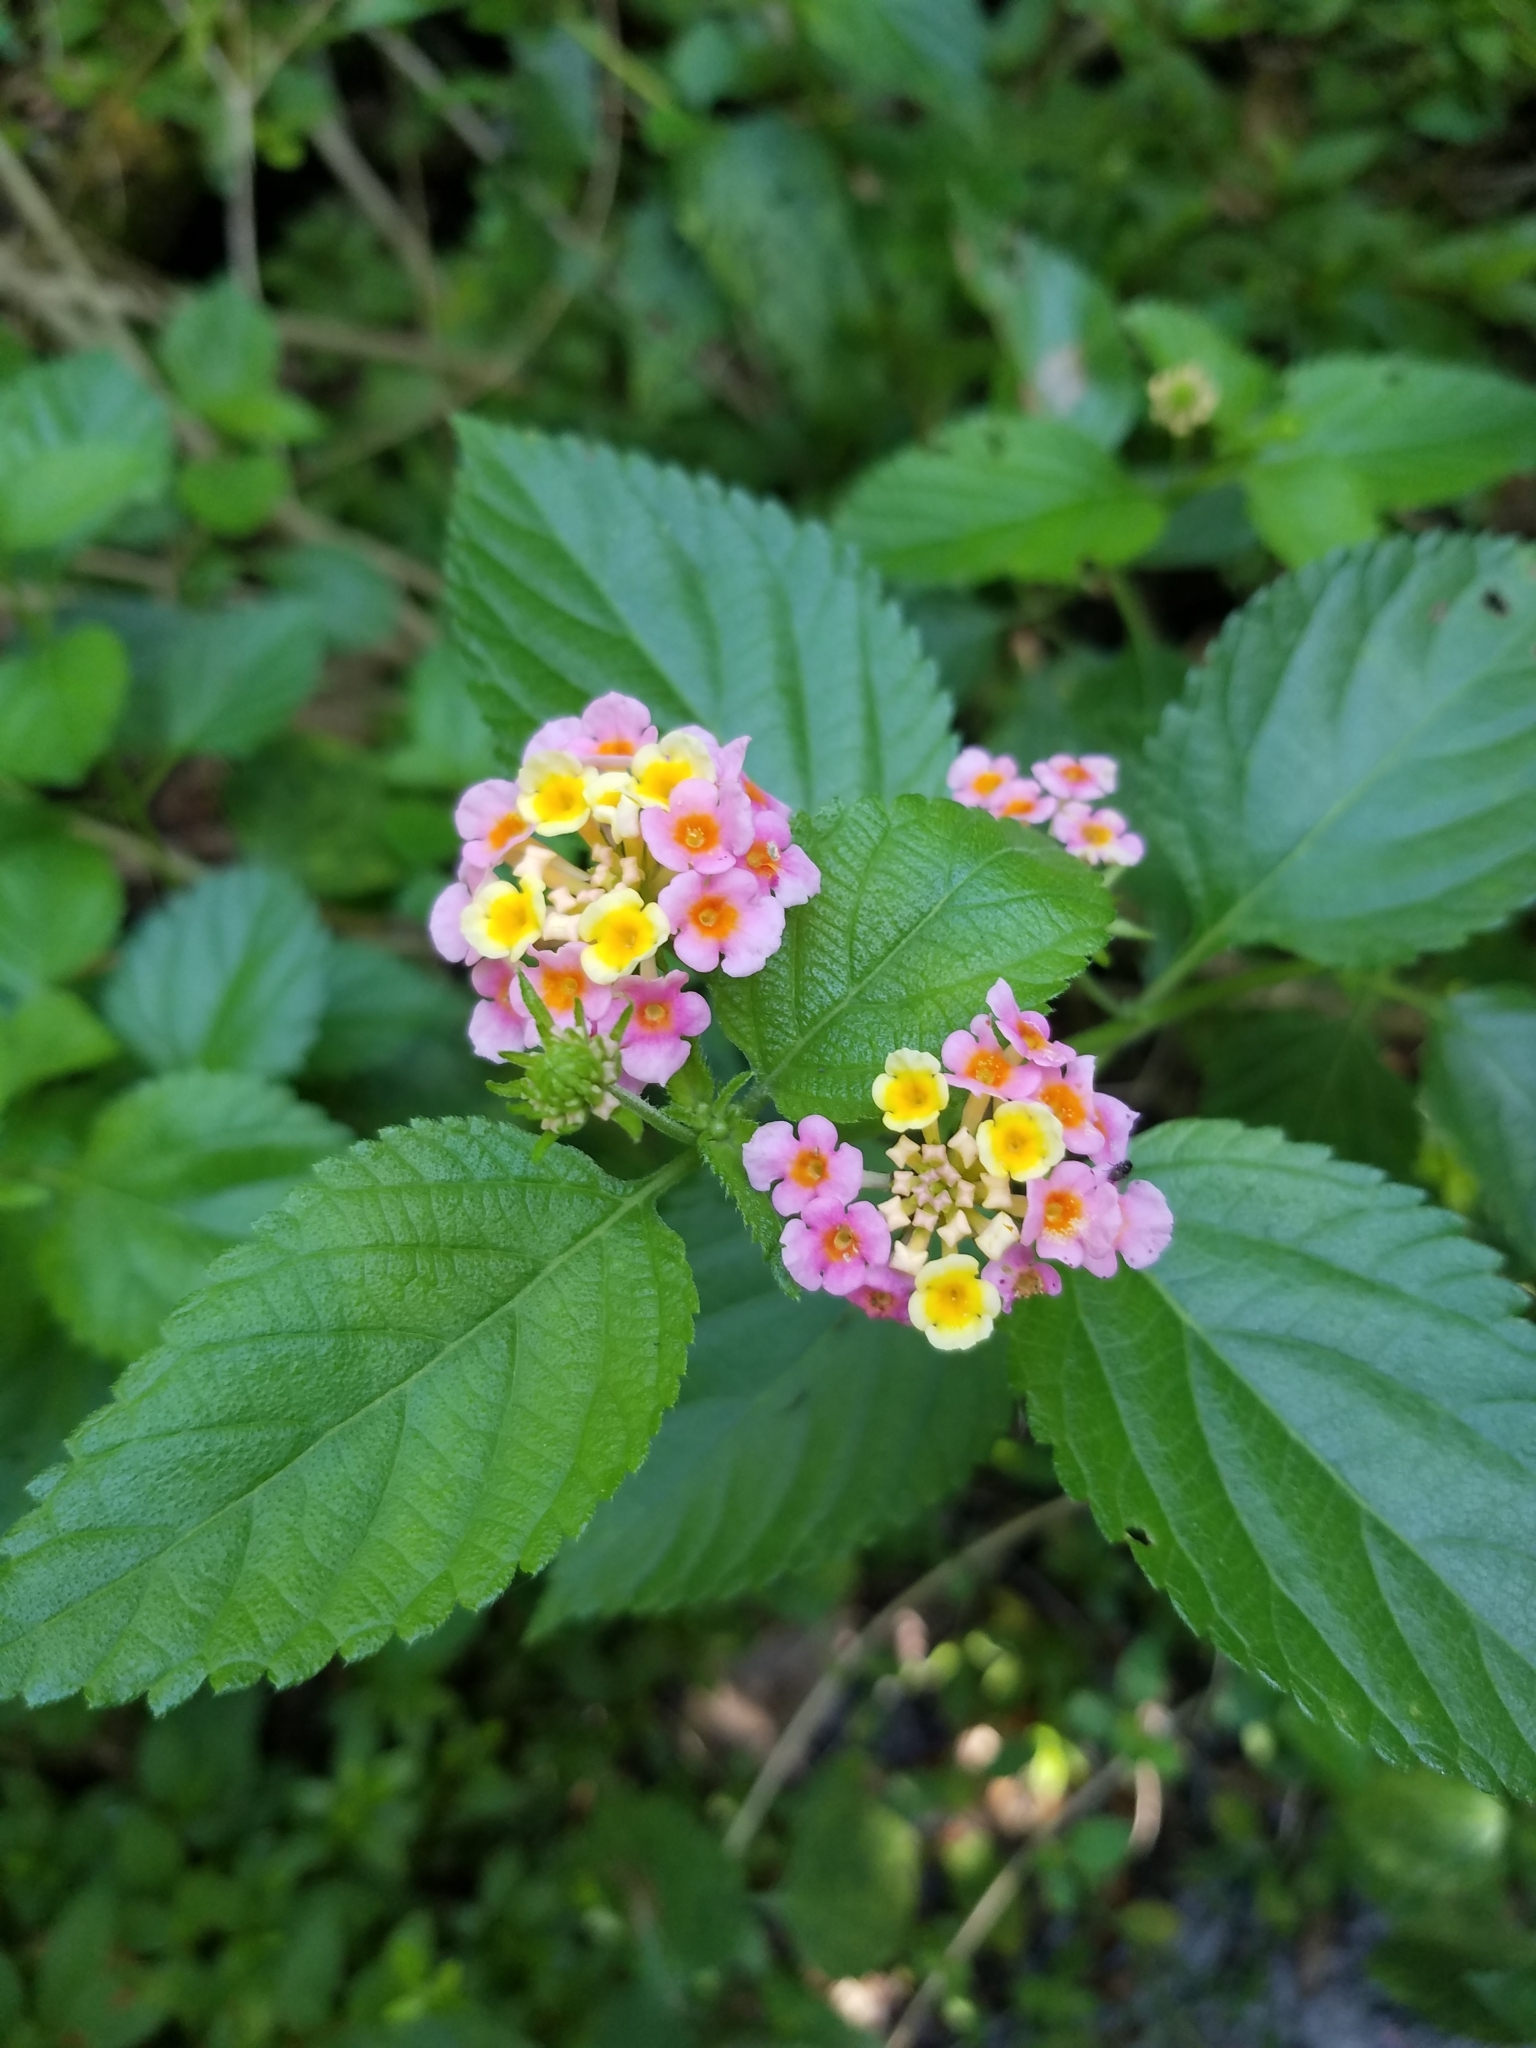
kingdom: Plantae
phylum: Tracheophyta
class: Magnoliopsida
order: Lamiales
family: Verbenaceae
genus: Lantana
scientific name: Lantana camara
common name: Lantana
